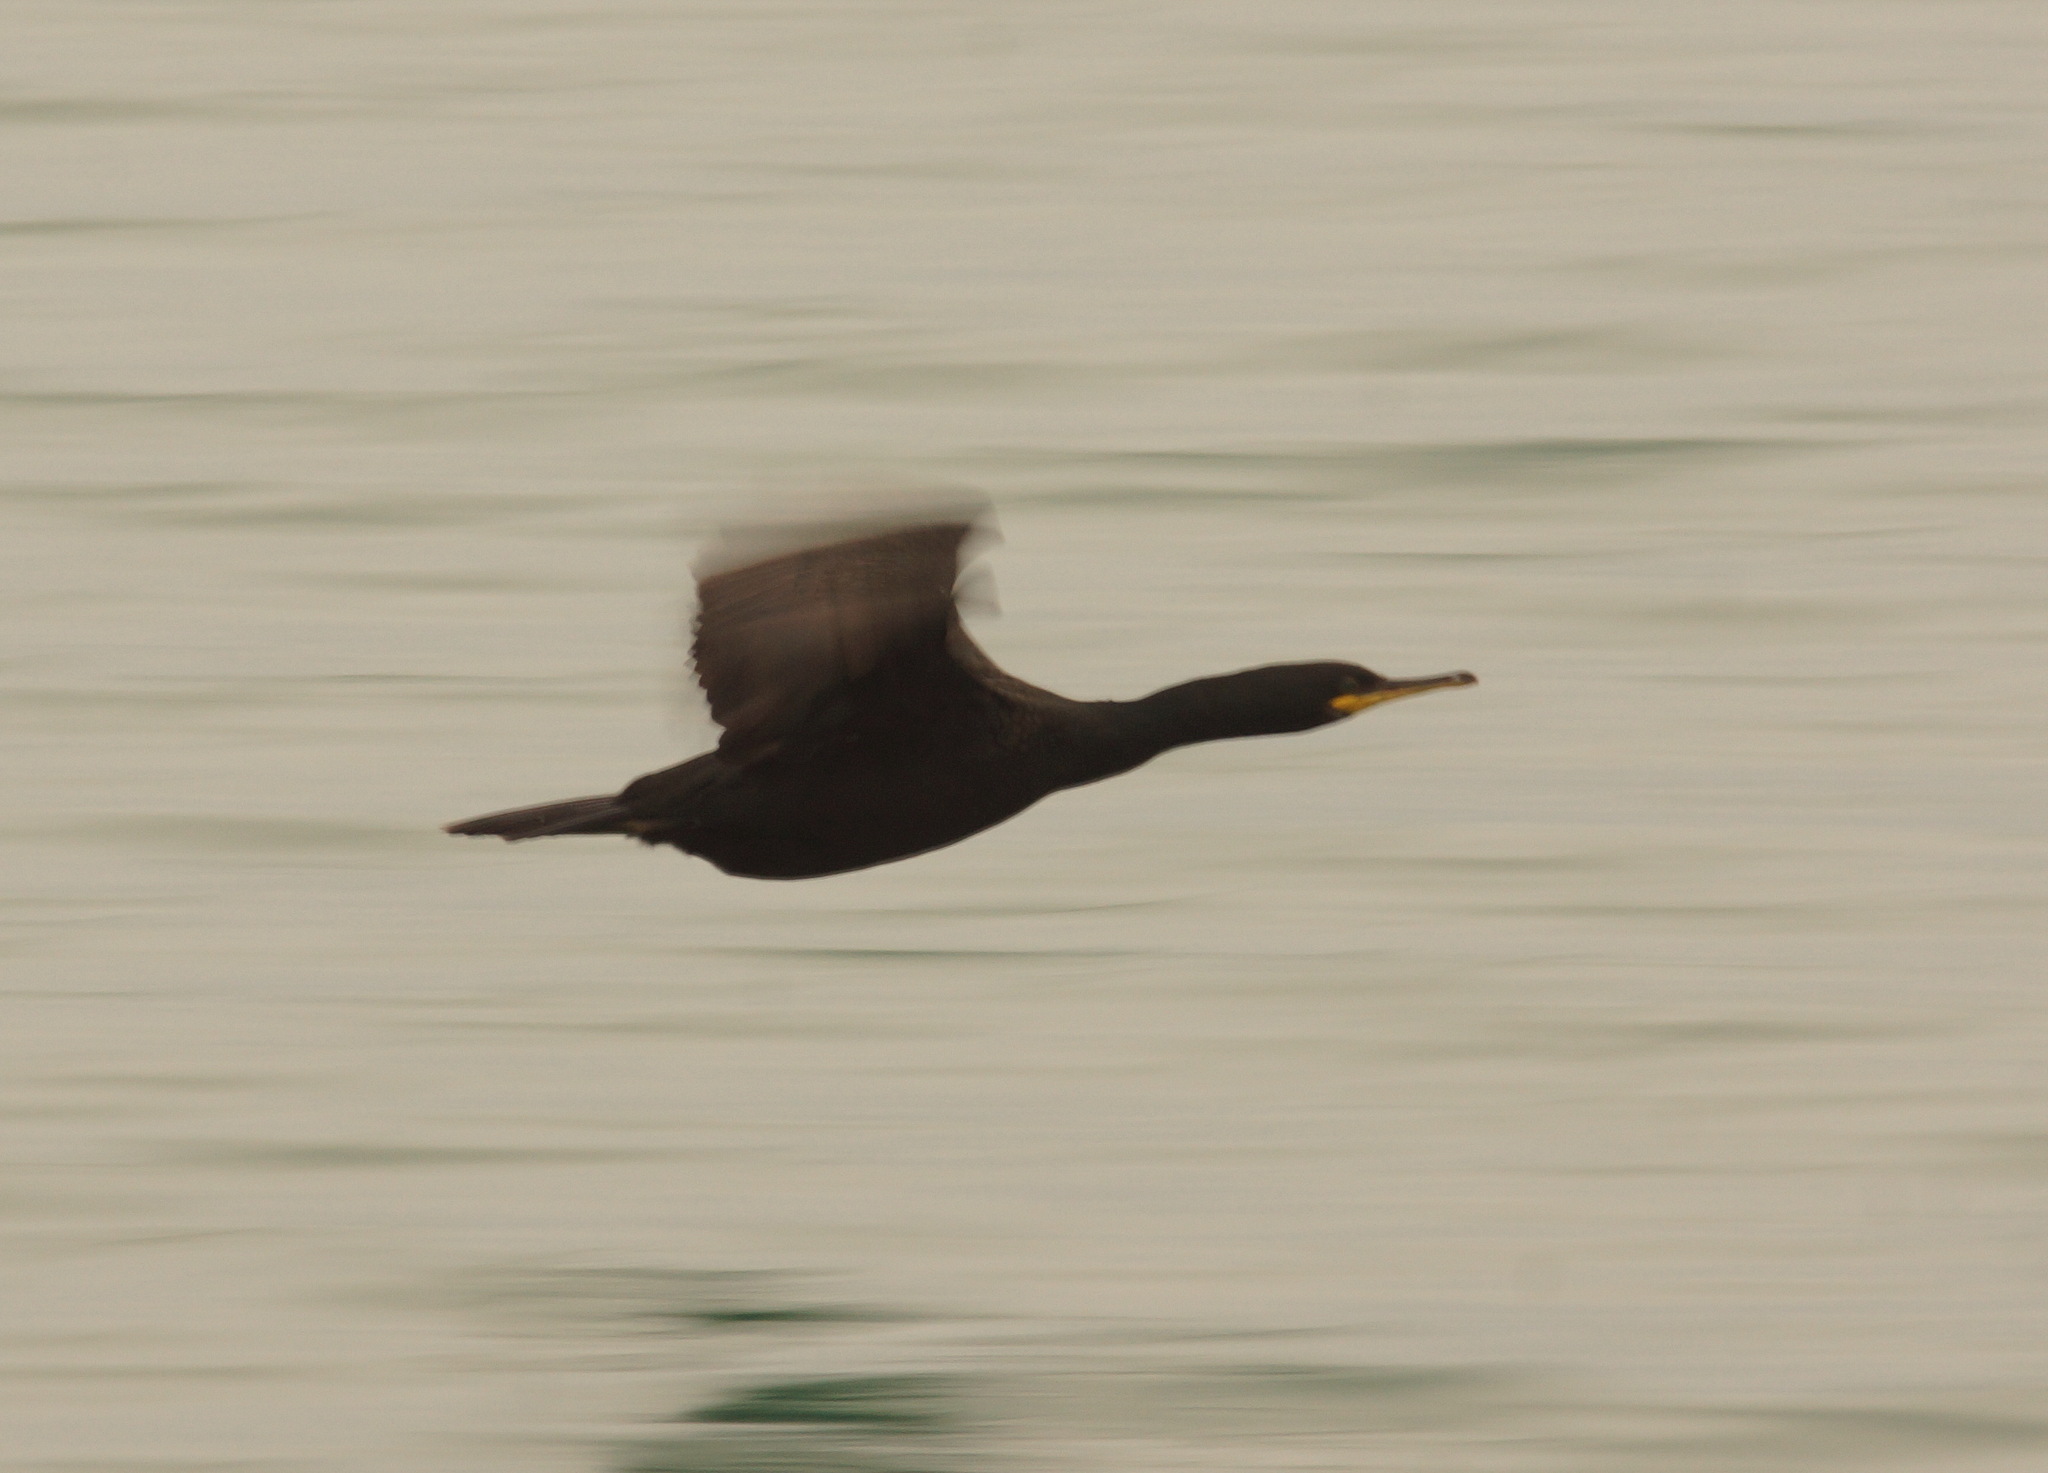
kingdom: Animalia
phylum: Chordata
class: Aves
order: Suliformes
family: Phalacrocoracidae
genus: Phalacrocorax
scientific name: Phalacrocorax aristotelis
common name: European shag
